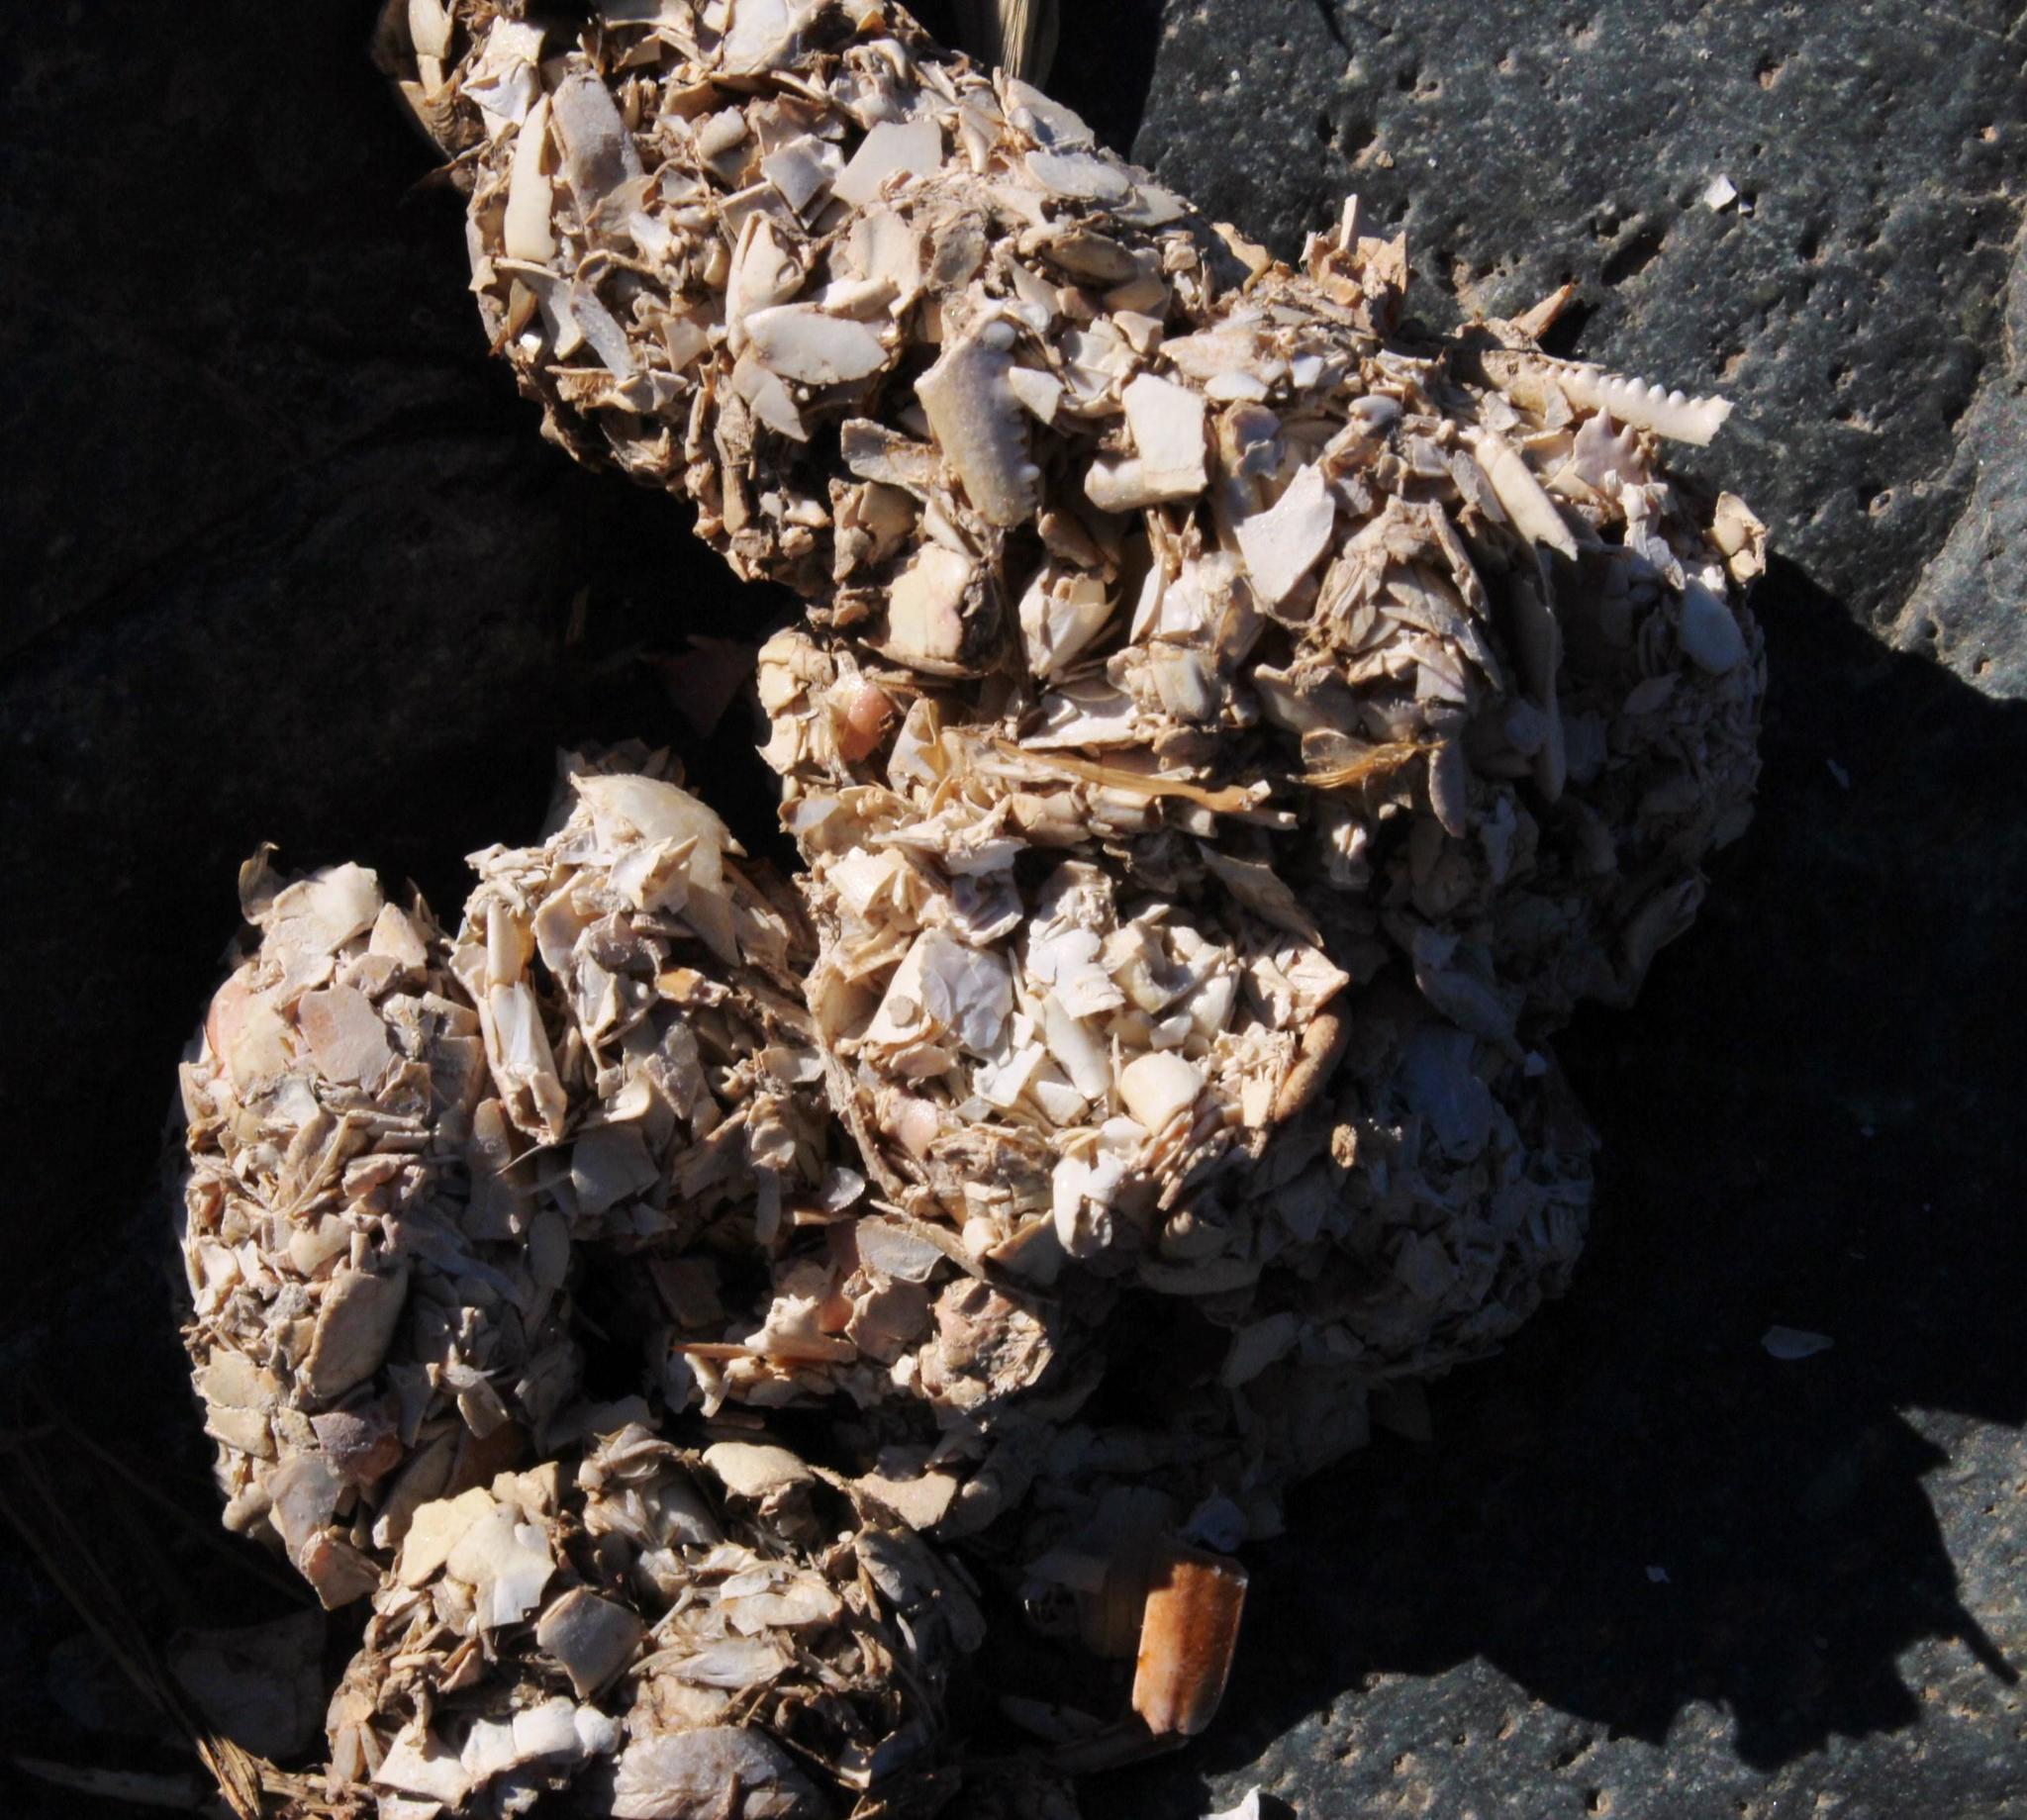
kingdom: Animalia
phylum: Chordata
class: Mammalia
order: Carnivora
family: Mustelidae
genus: Aonyx
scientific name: Aonyx capensis
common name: African clawless otter
